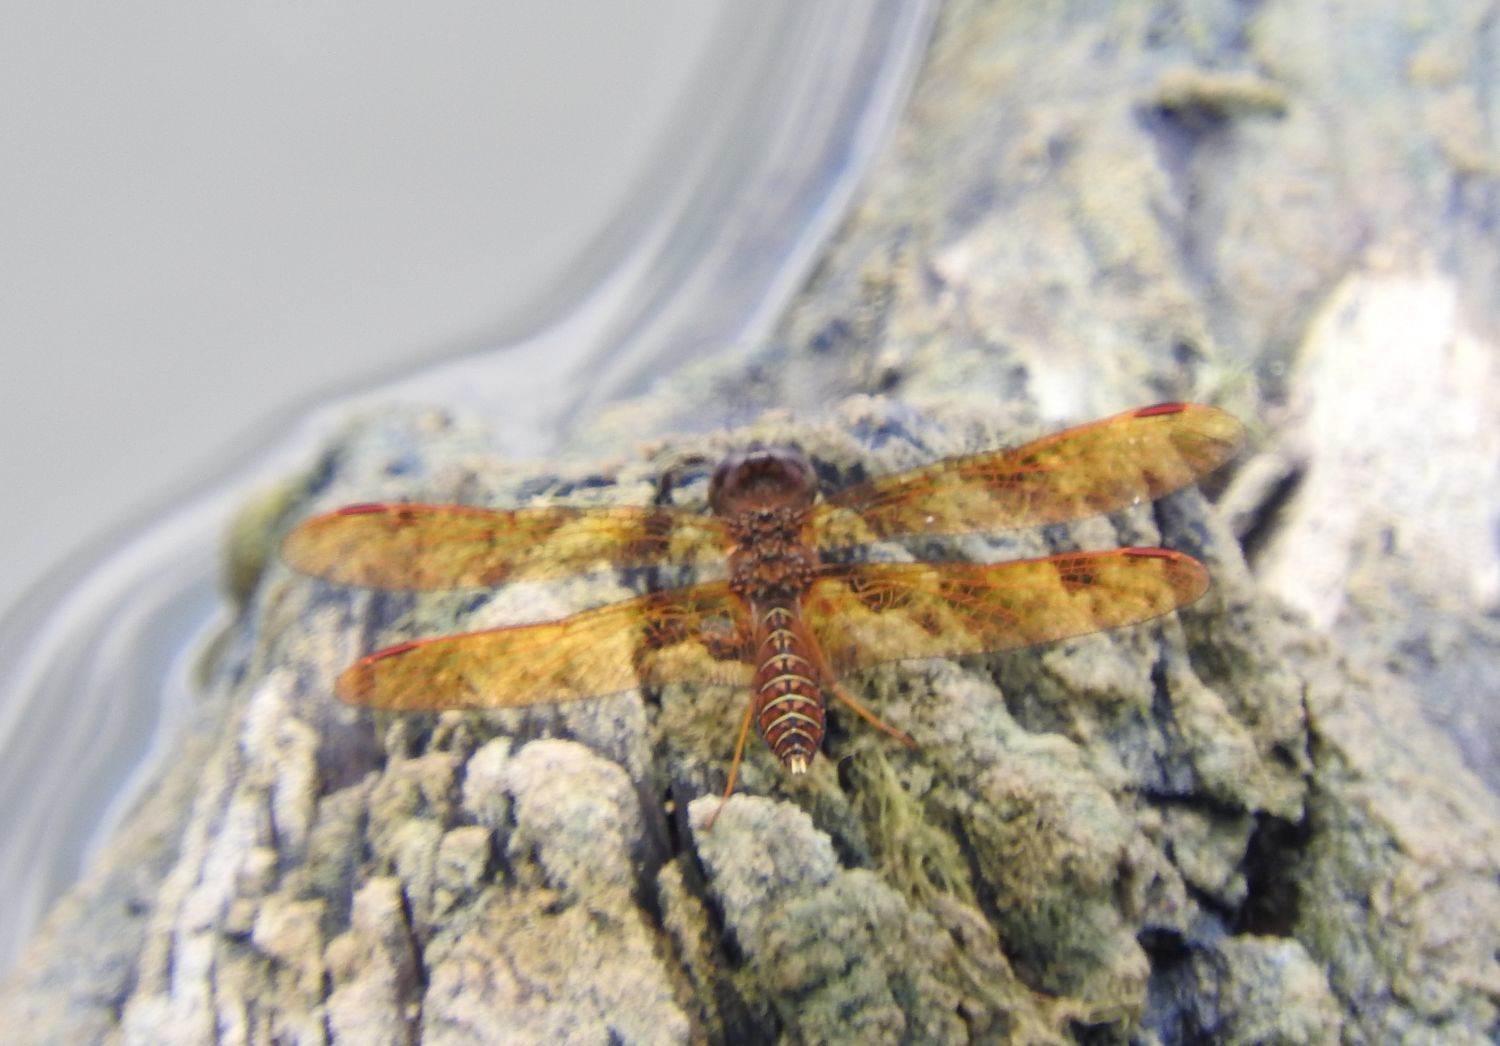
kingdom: Animalia
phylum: Arthropoda
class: Insecta
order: Odonata
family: Libellulidae
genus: Perithemis
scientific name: Perithemis tenera
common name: Eastern amberwing
